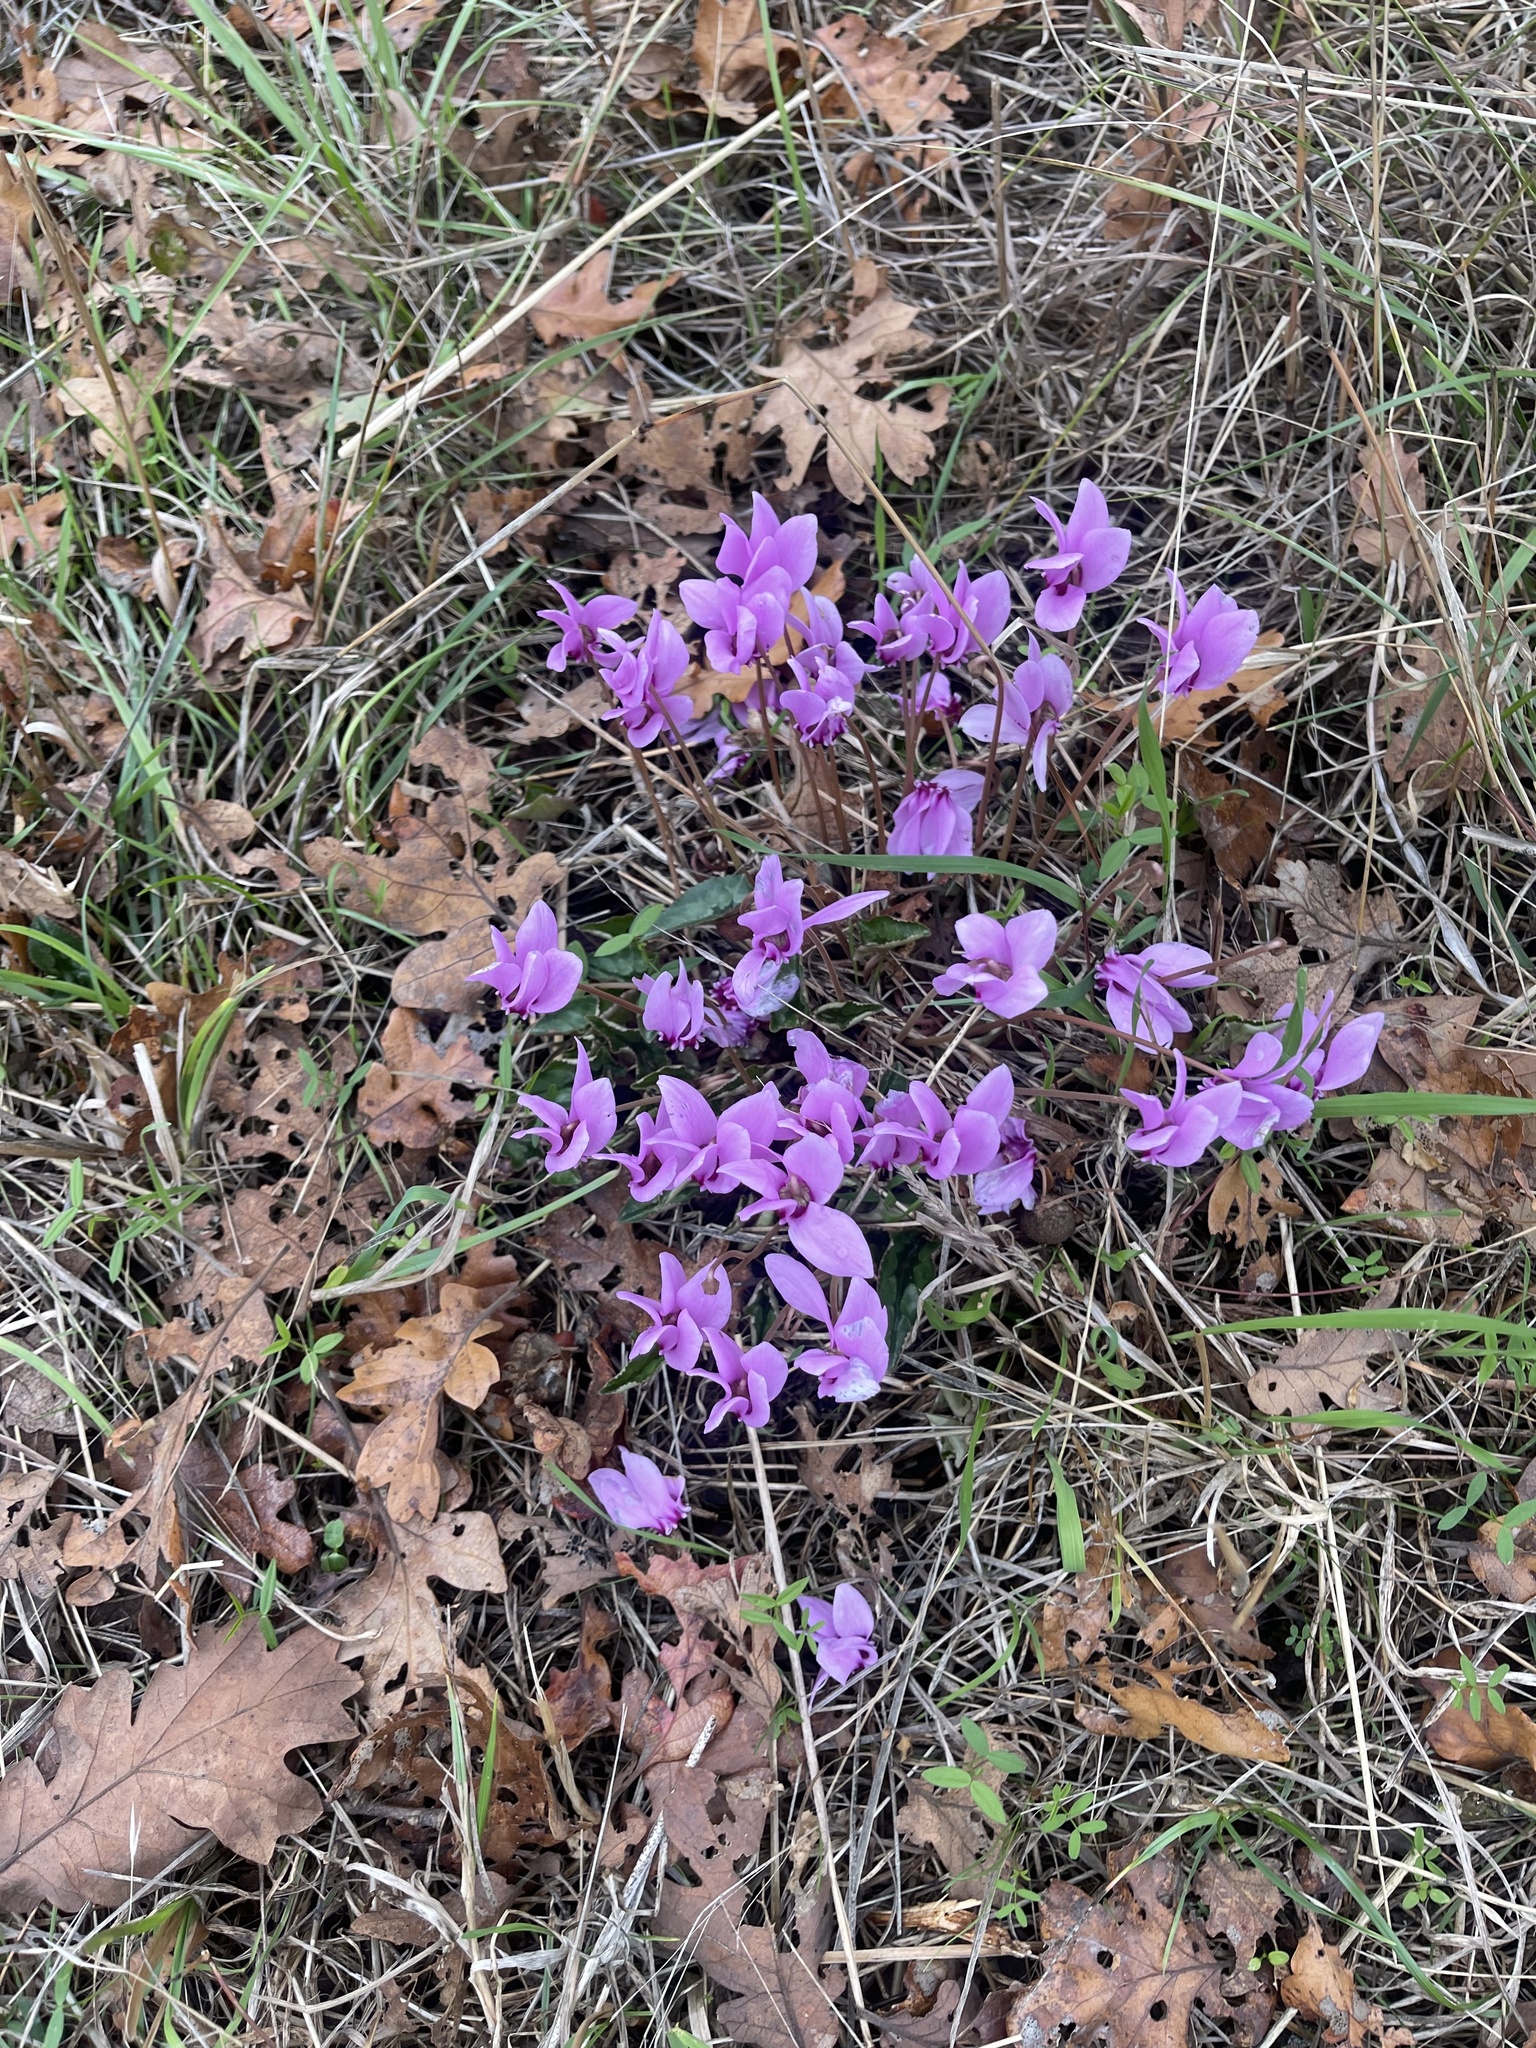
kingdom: Plantae
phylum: Tracheophyta
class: Magnoliopsida
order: Ericales
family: Primulaceae
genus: Cyclamen
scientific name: Cyclamen hederifolium
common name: Sowbread
